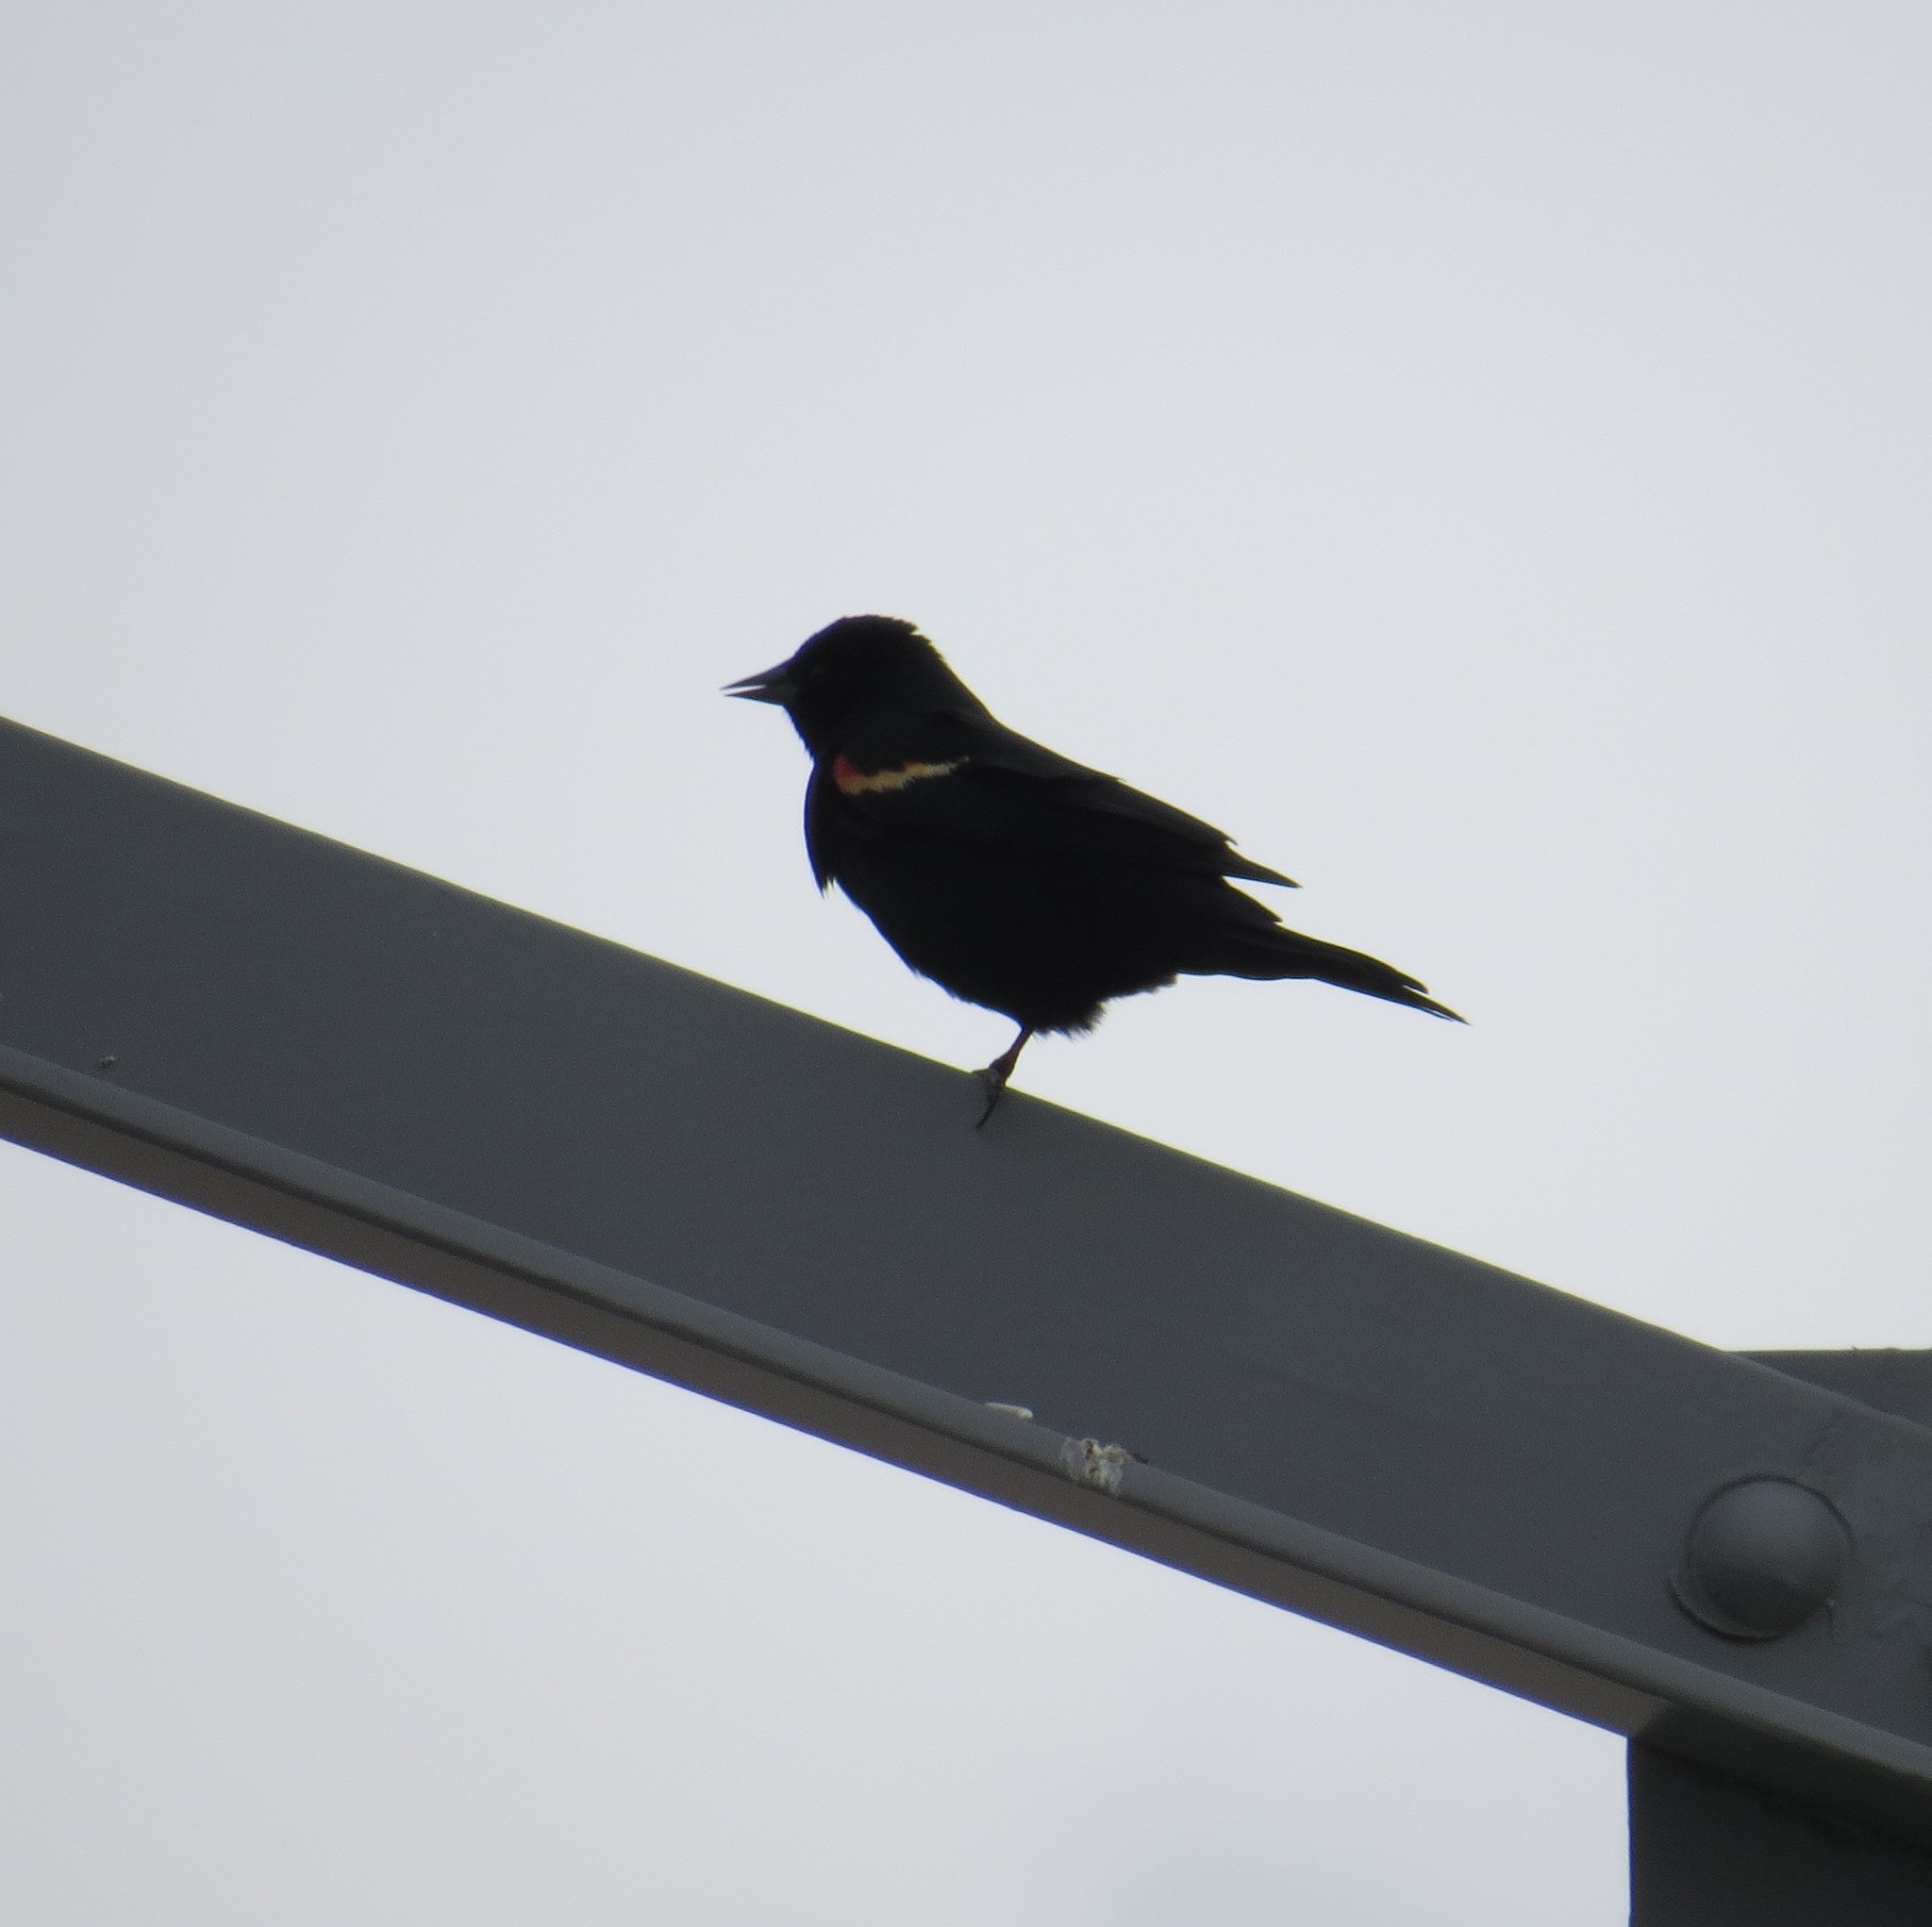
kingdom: Animalia
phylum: Chordata
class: Aves
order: Passeriformes
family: Icteridae
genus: Agelaius
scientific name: Agelaius phoeniceus
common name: Red-winged blackbird
